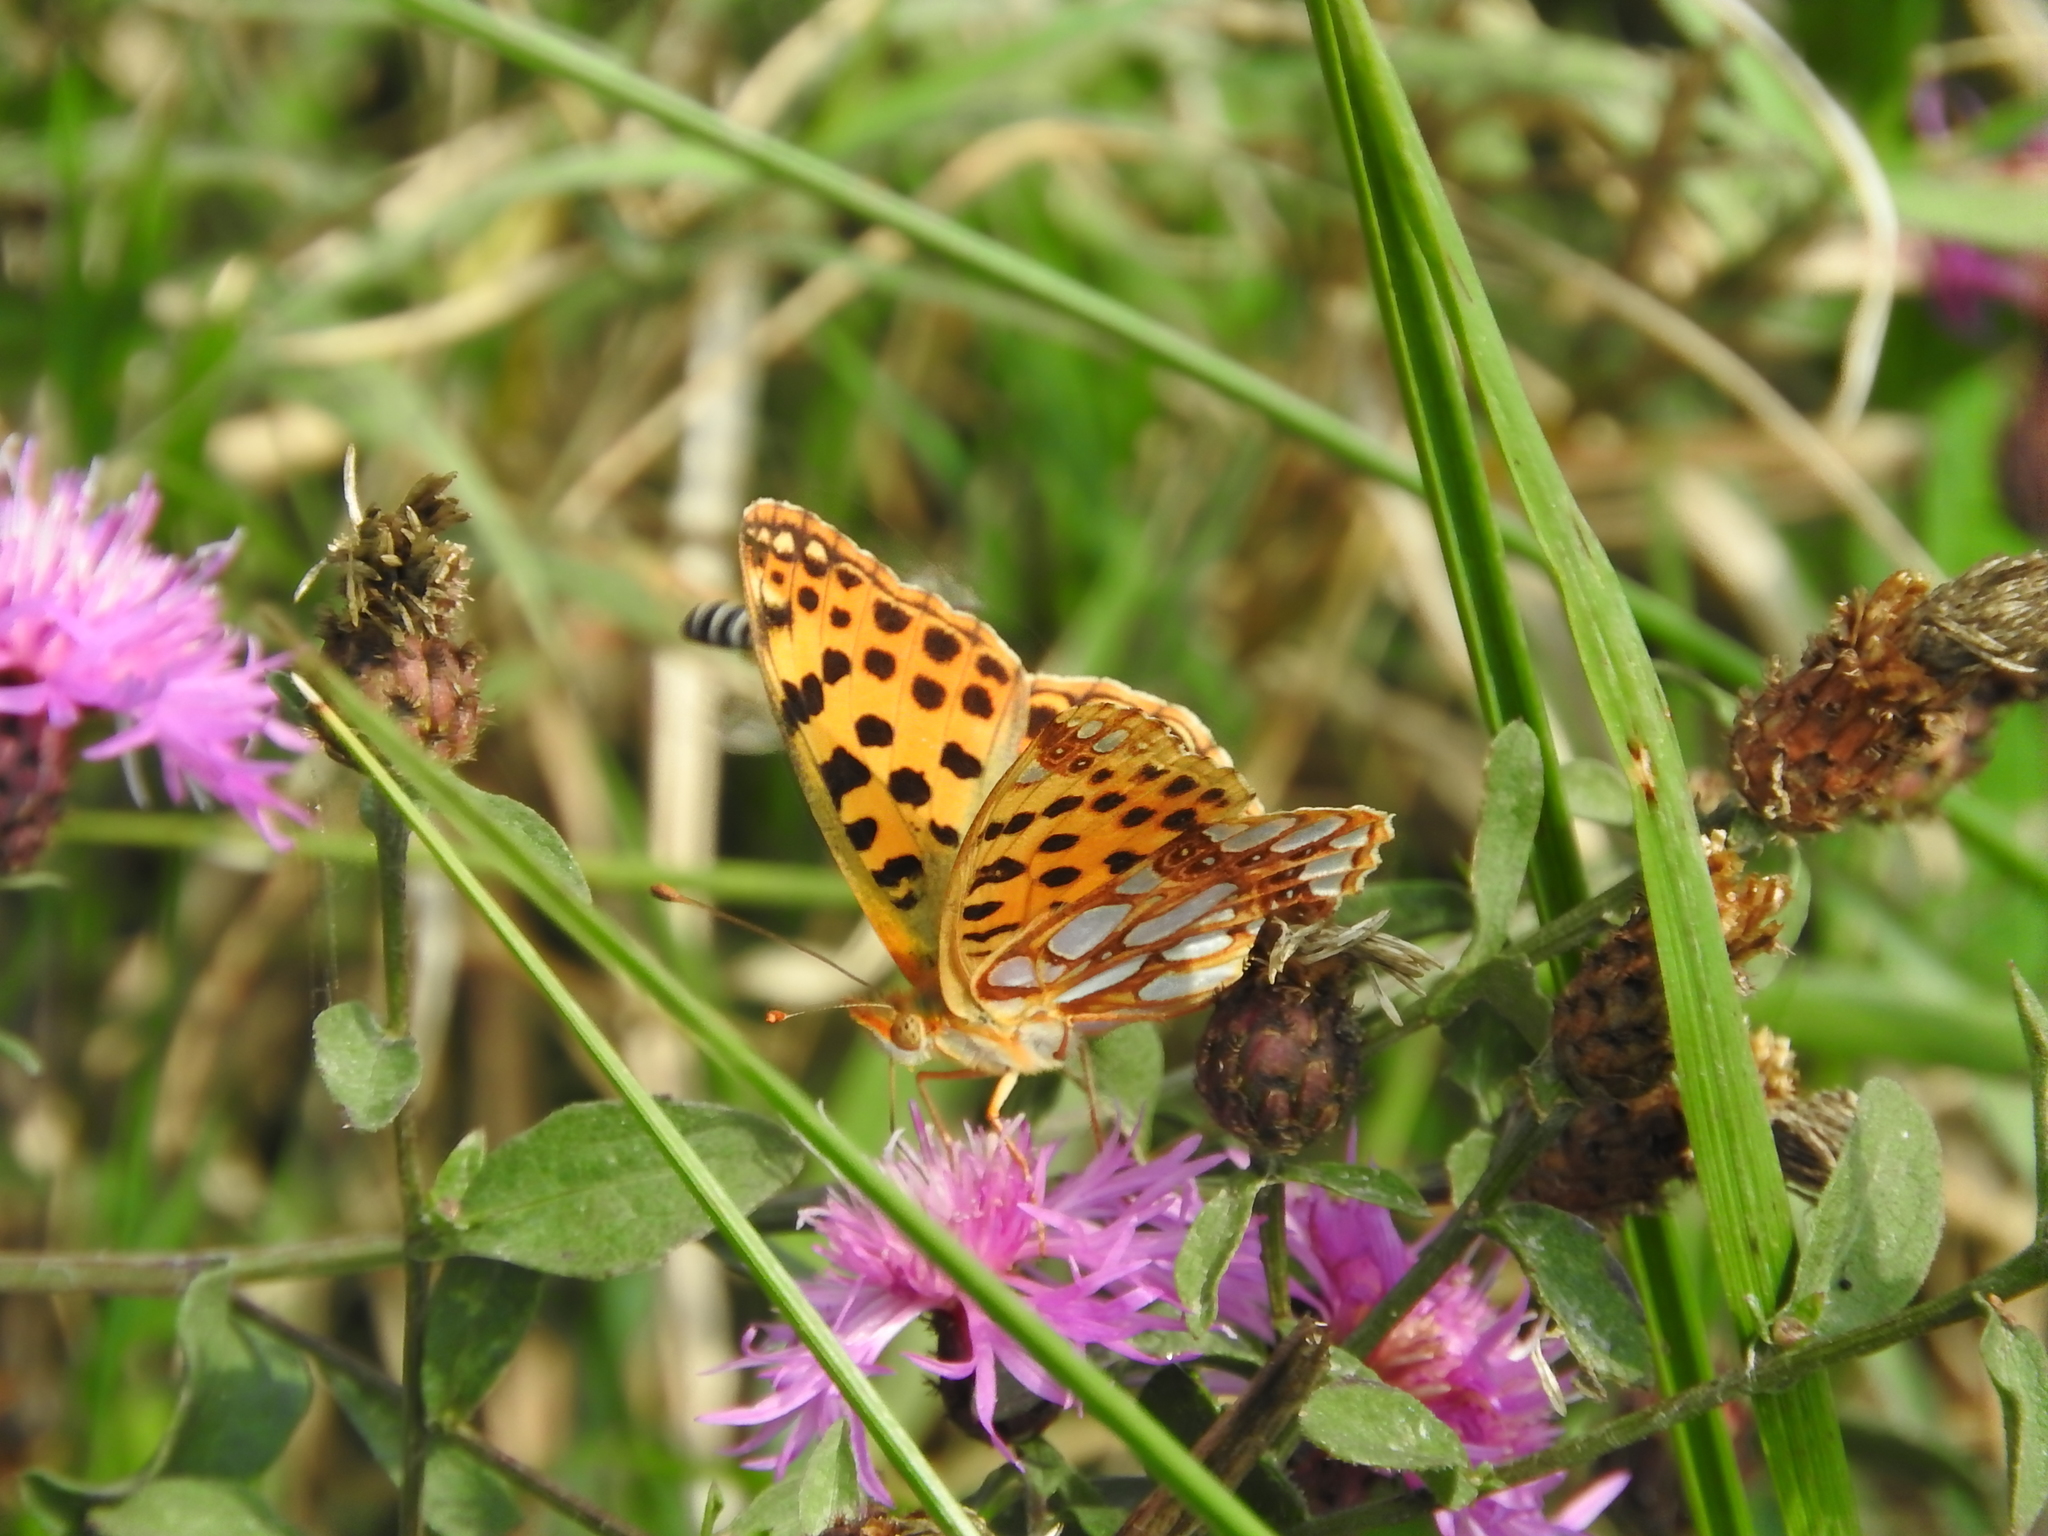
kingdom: Animalia
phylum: Arthropoda
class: Insecta
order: Lepidoptera
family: Nymphalidae
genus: Issoria
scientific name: Issoria lathonia
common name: Queen of spain fritillary
